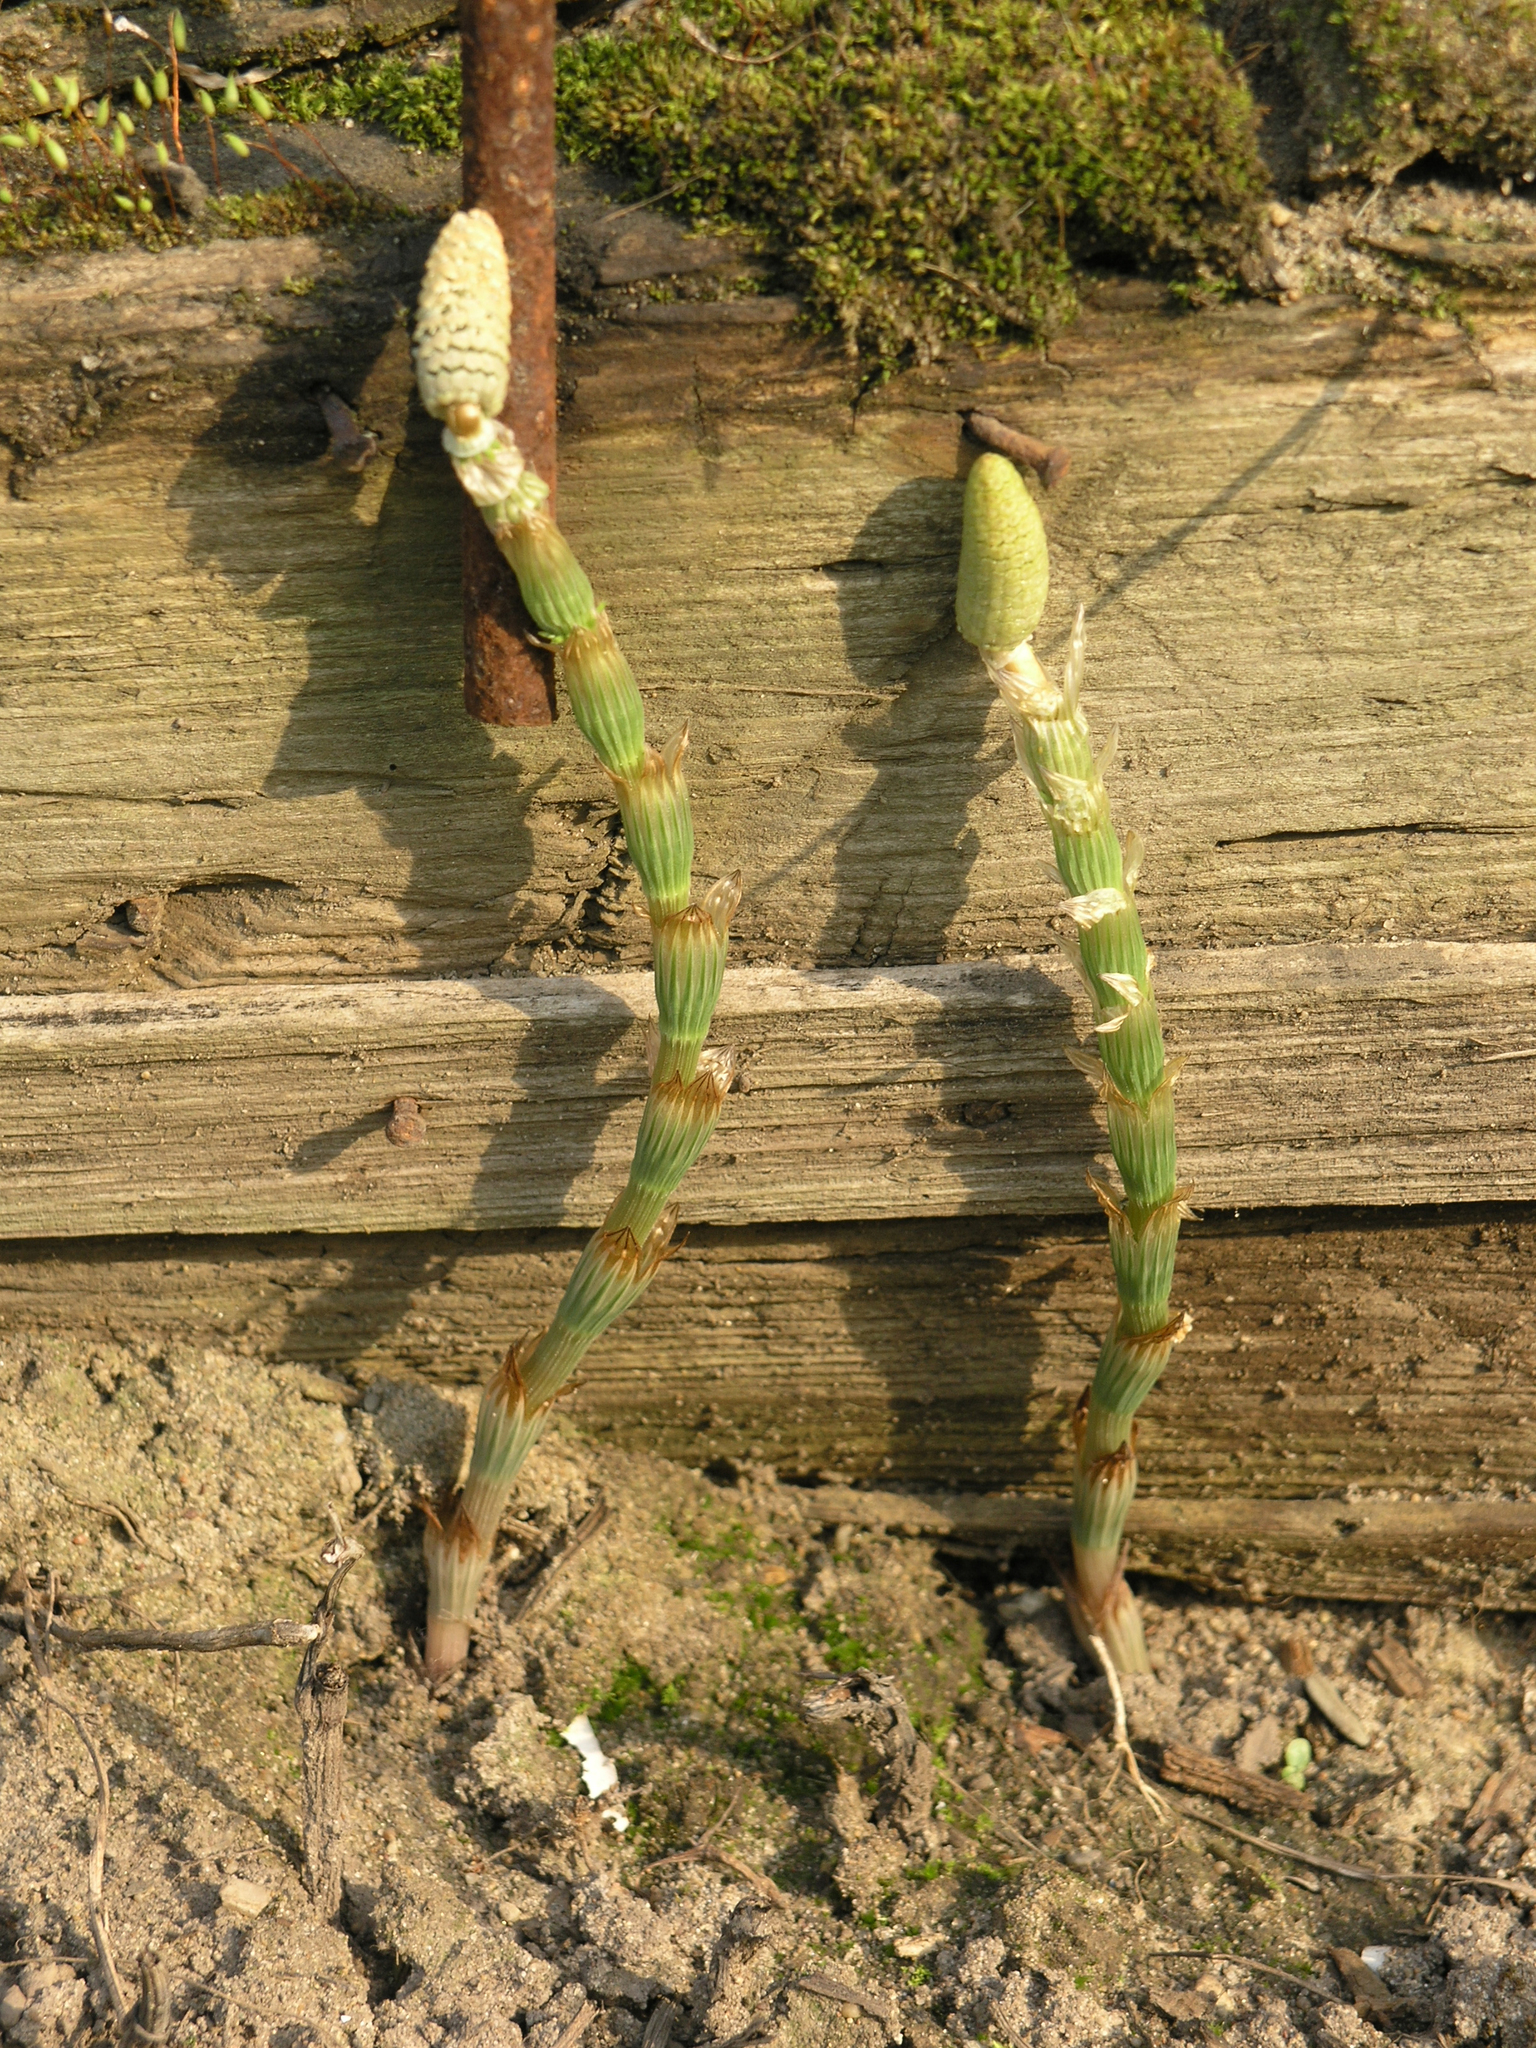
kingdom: Plantae
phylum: Tracheophyta
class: Polypodiopsida
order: Equisetales
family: Equisetaceae
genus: Equisetum
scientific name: Equisetum sylvaticum
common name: Wood horsetail
